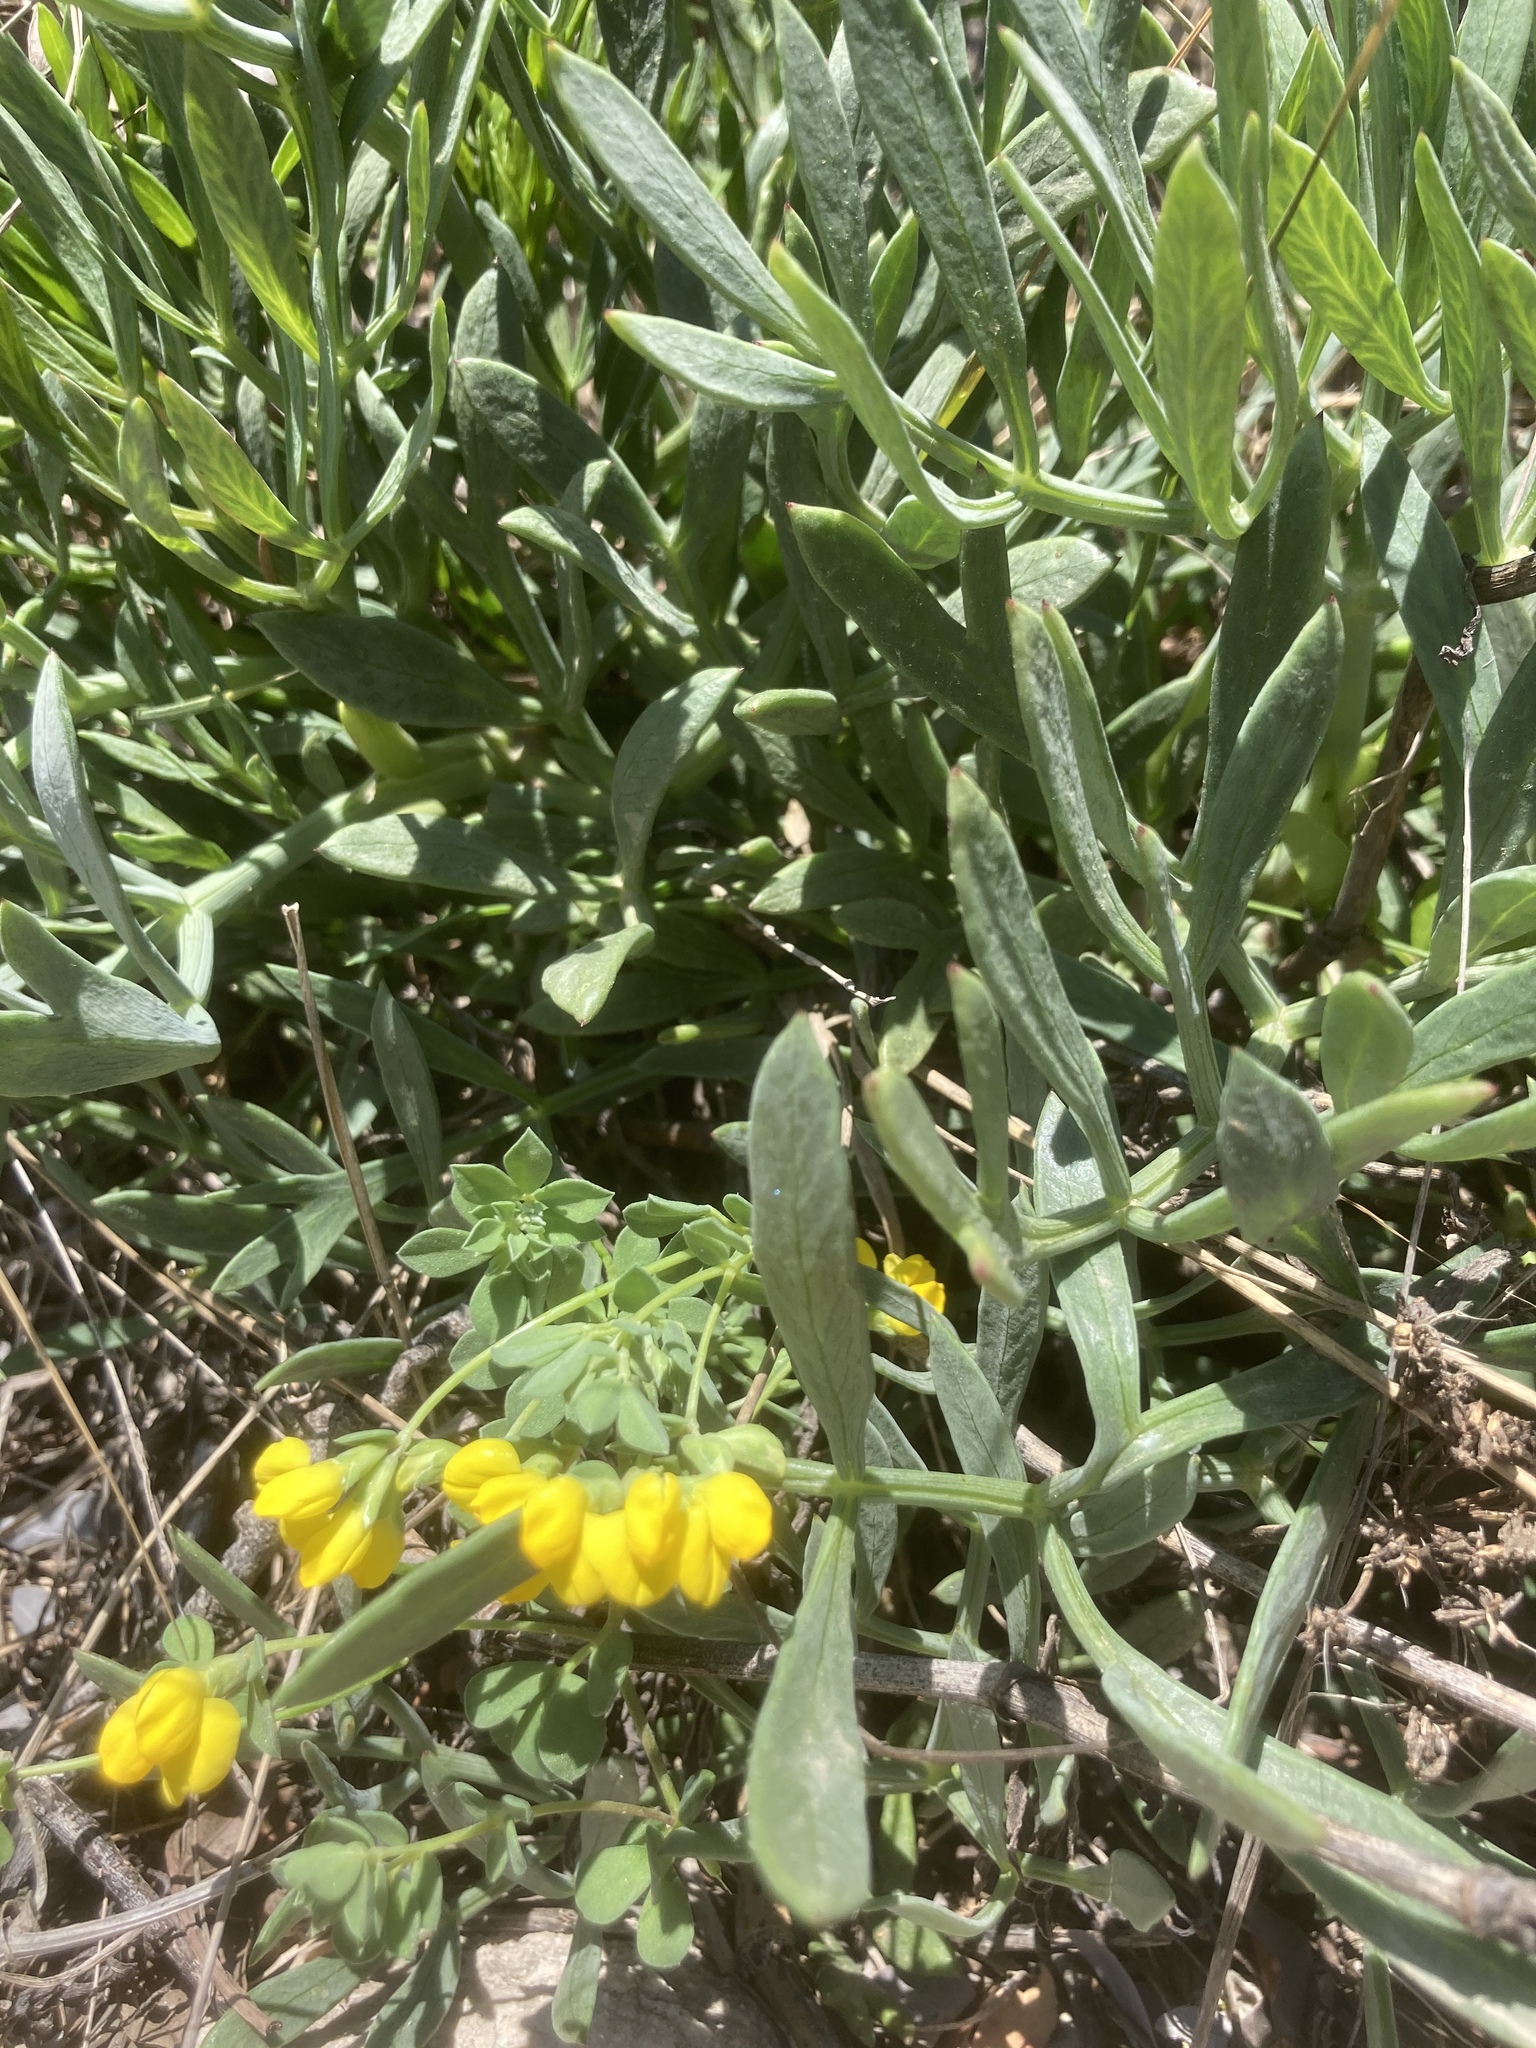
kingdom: Plantae
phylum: Tracheophyta
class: Magnoliopsida
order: Apiales
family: Apiaceae
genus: Crithmum
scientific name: Crithmum maritimum
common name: Rock samphire
